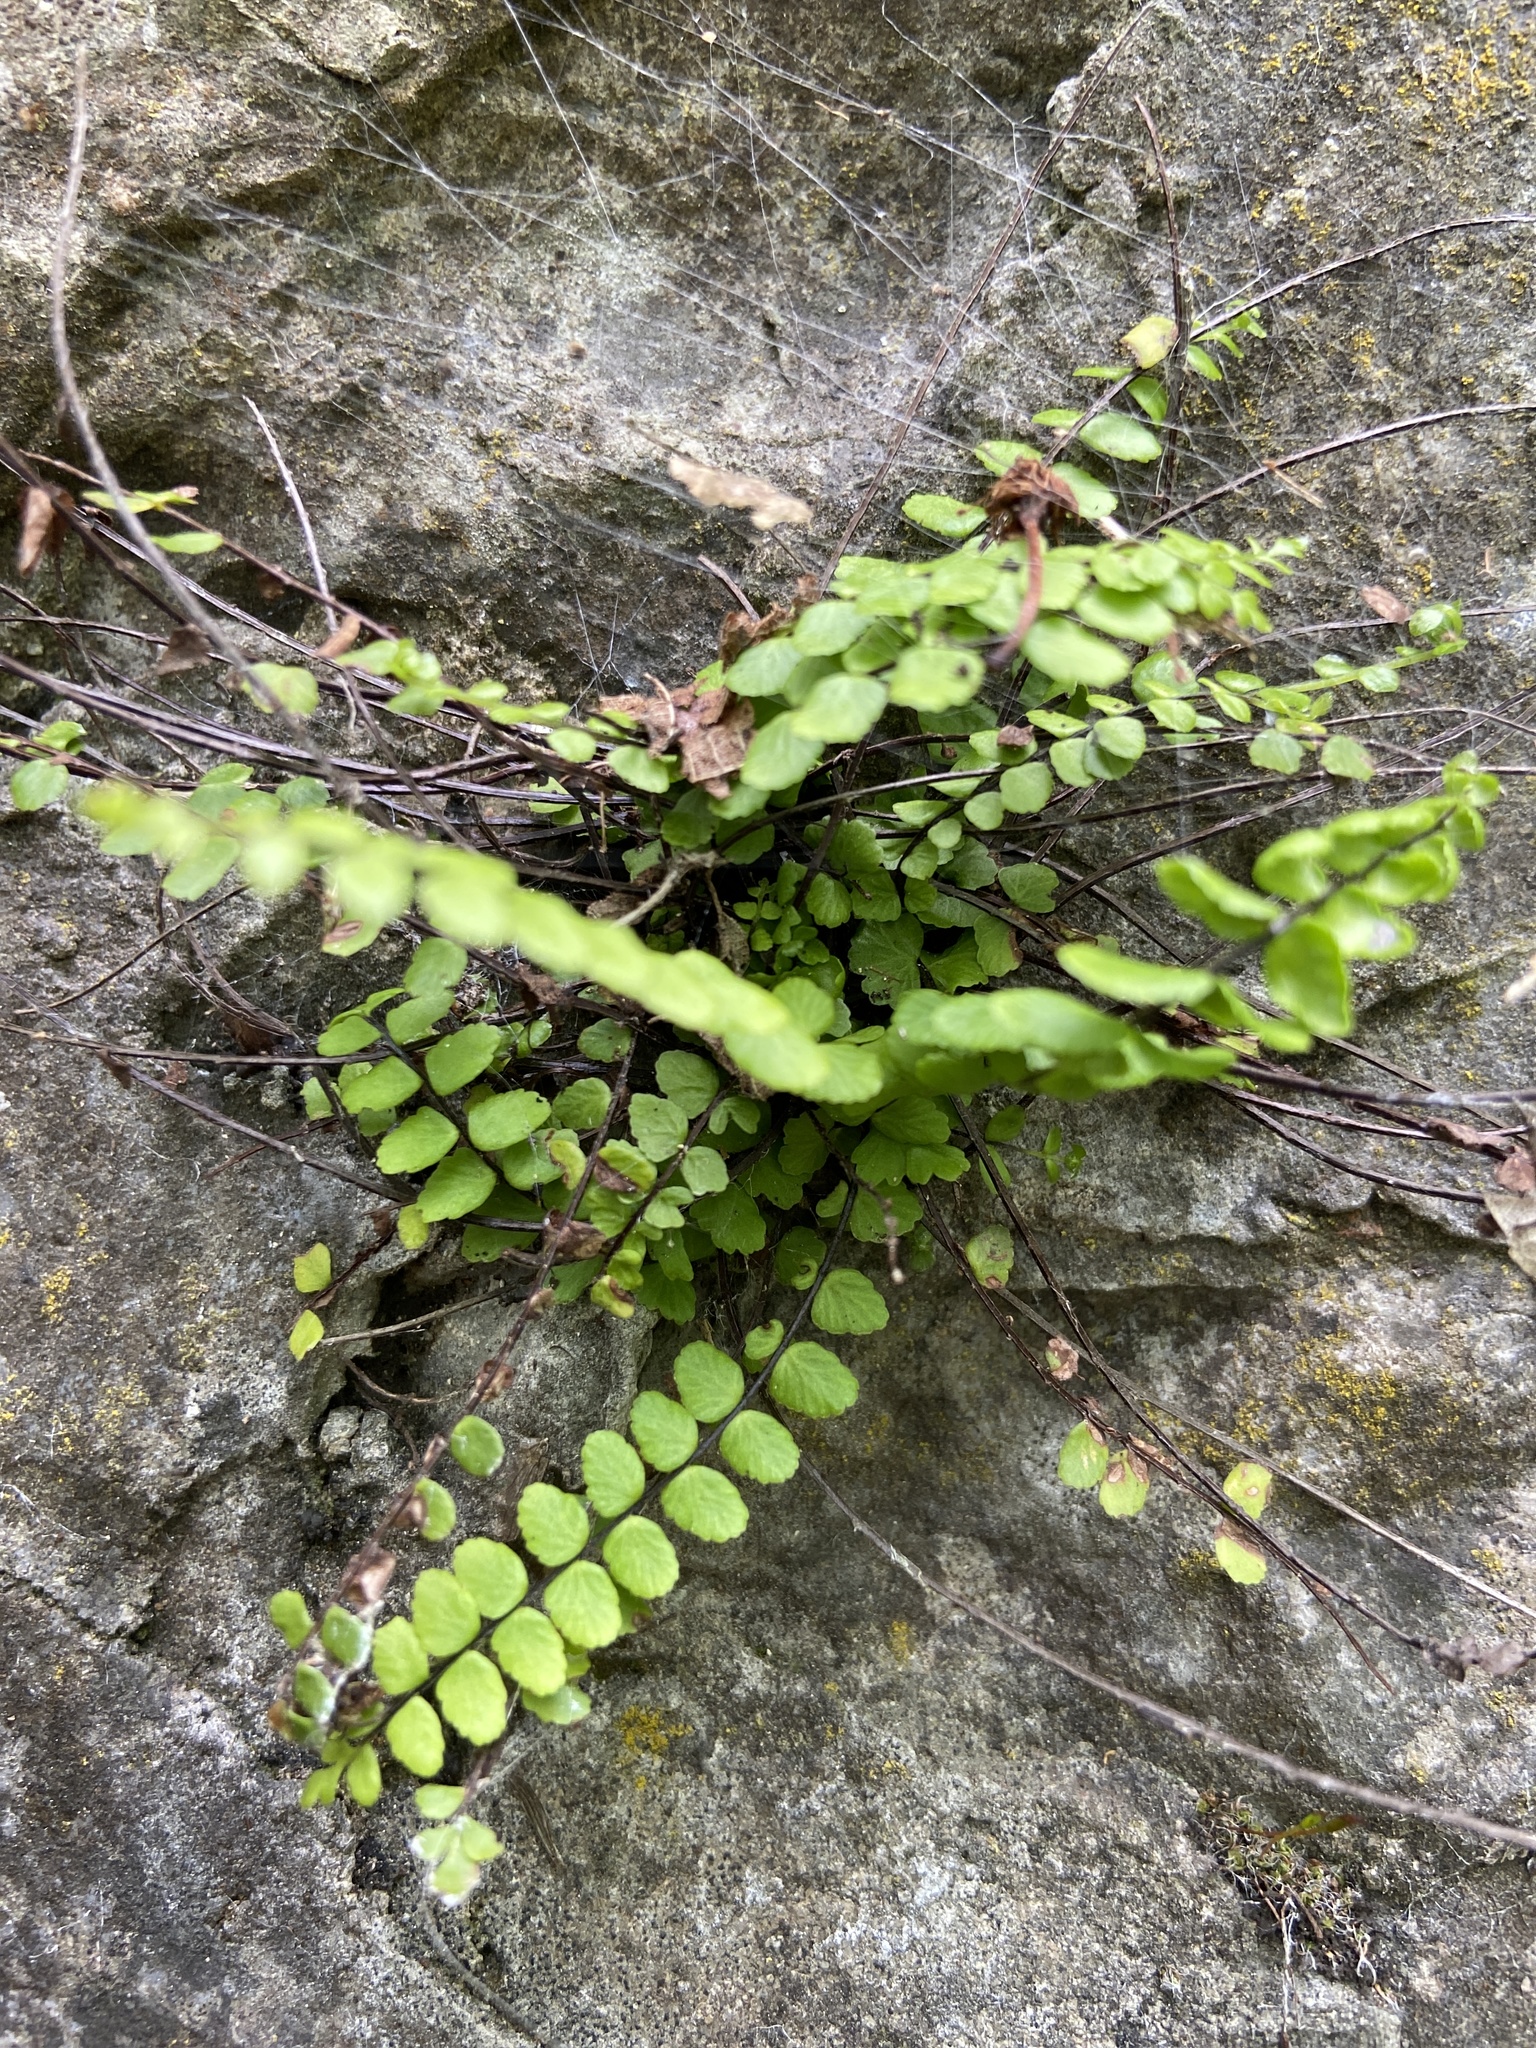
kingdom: Plantae
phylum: Tracheophyta
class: Polypodiopsida
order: Polypodiales
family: Aspleniaceae
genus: Asplenium
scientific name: Asplenium trichomanes
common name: Maidenhair spleenwort
